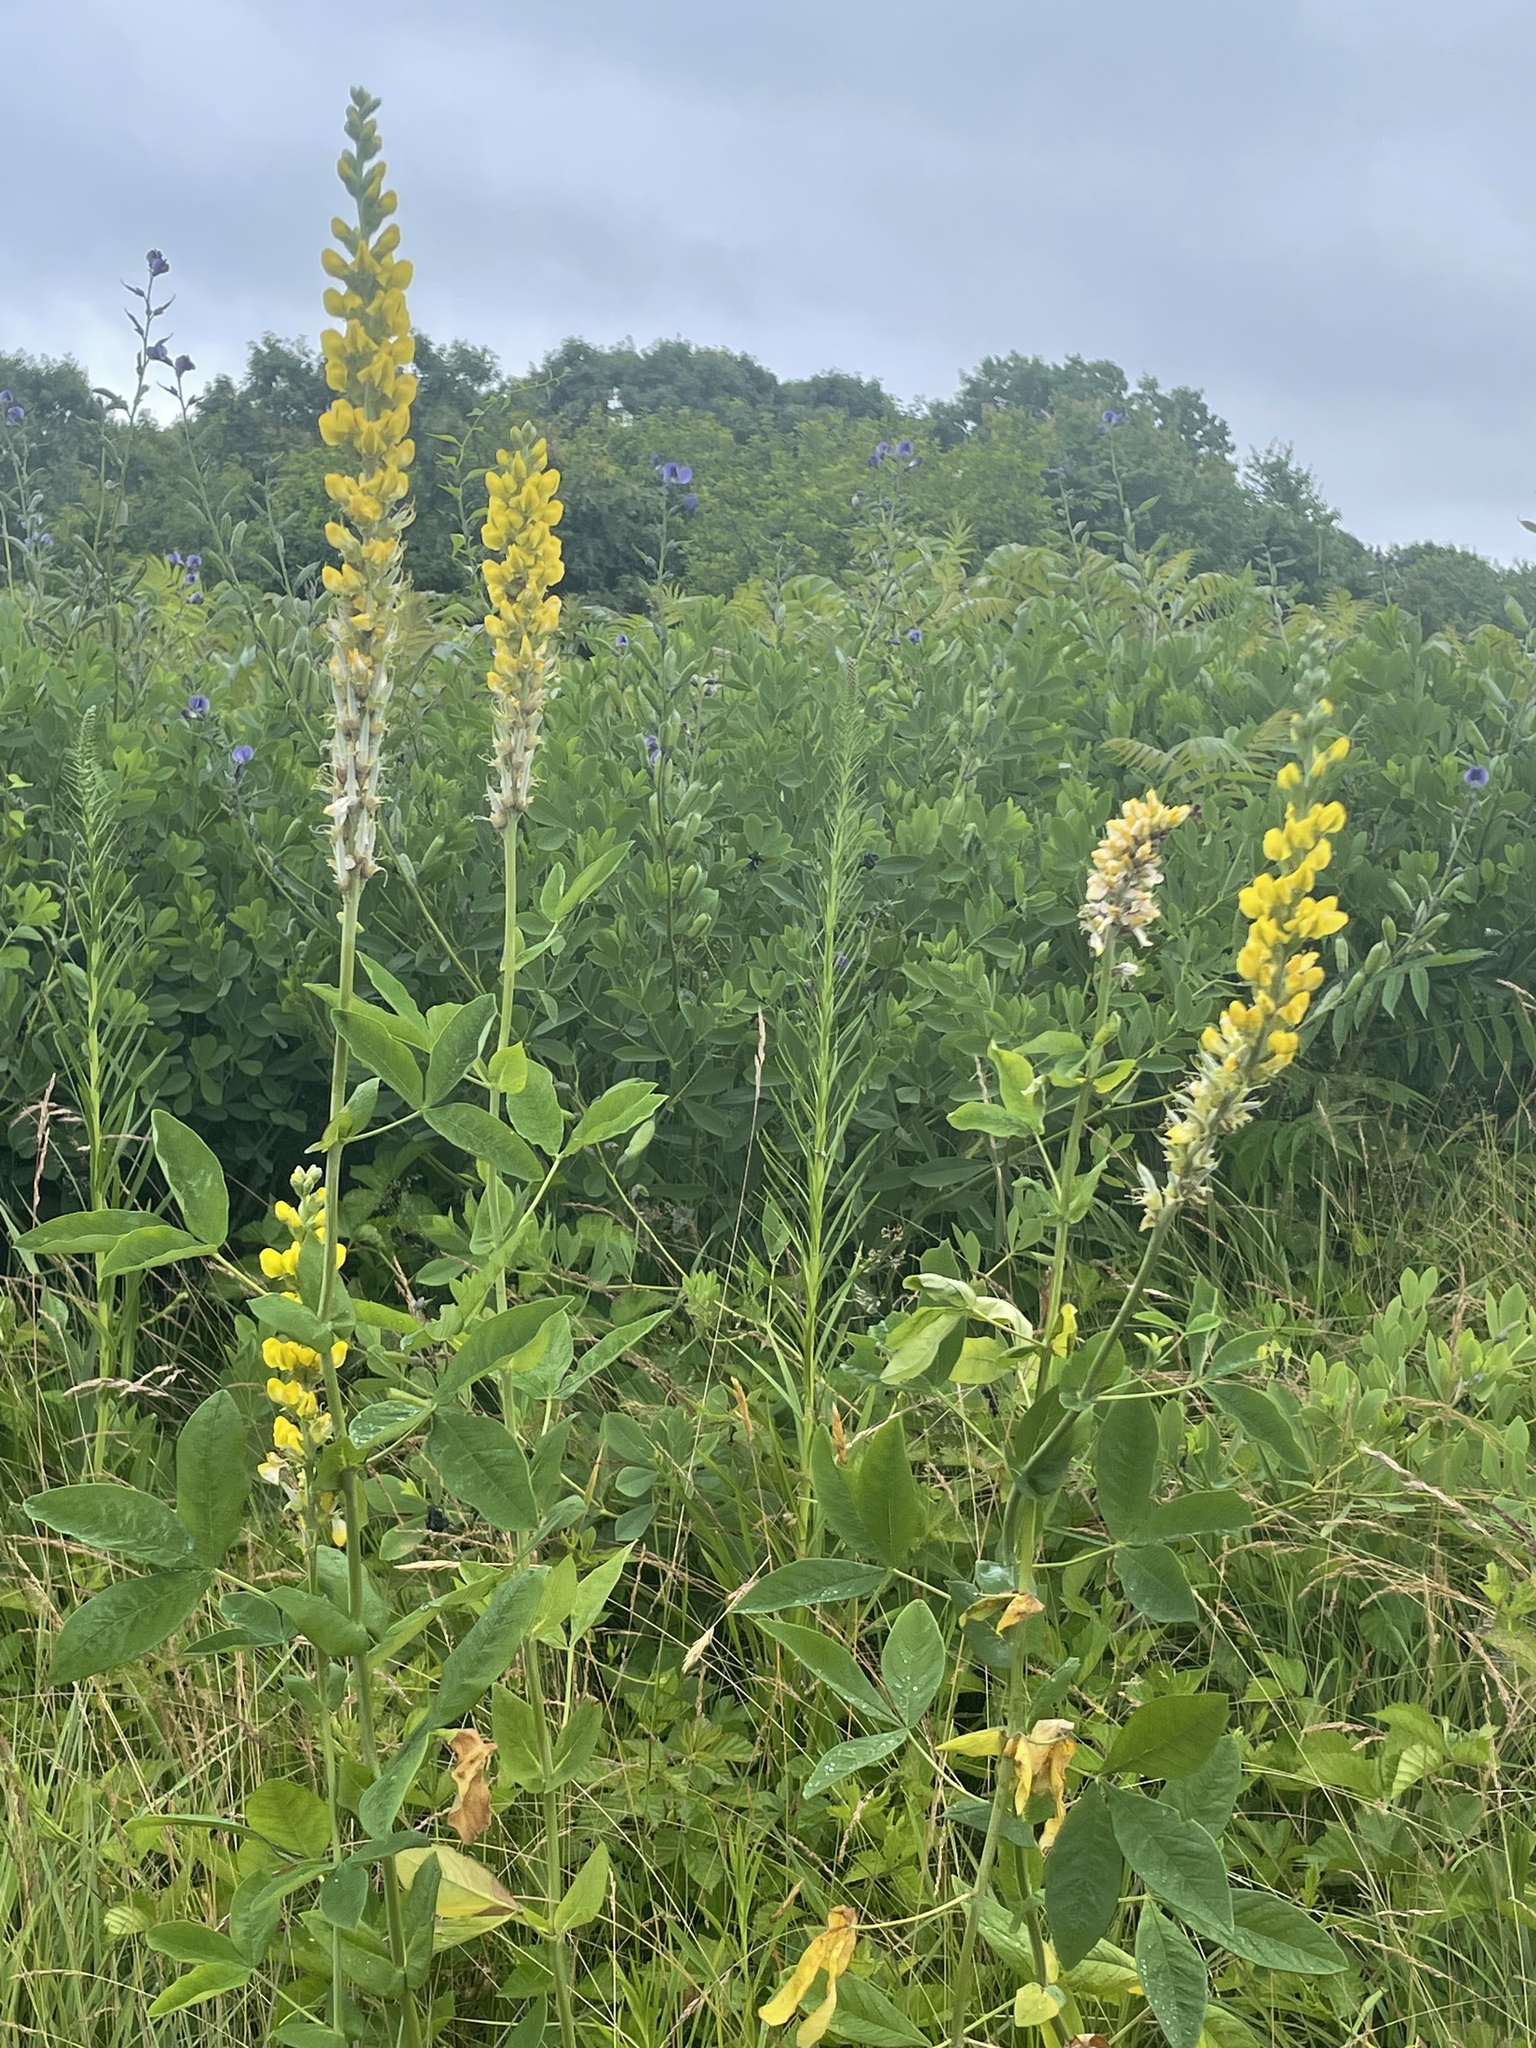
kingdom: Plantae
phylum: Tracheophyta
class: Magnoliopsida
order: Fabales
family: Fabaceae
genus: Thermopsis
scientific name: Thermopsis villosa
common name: Carolina-lupin
